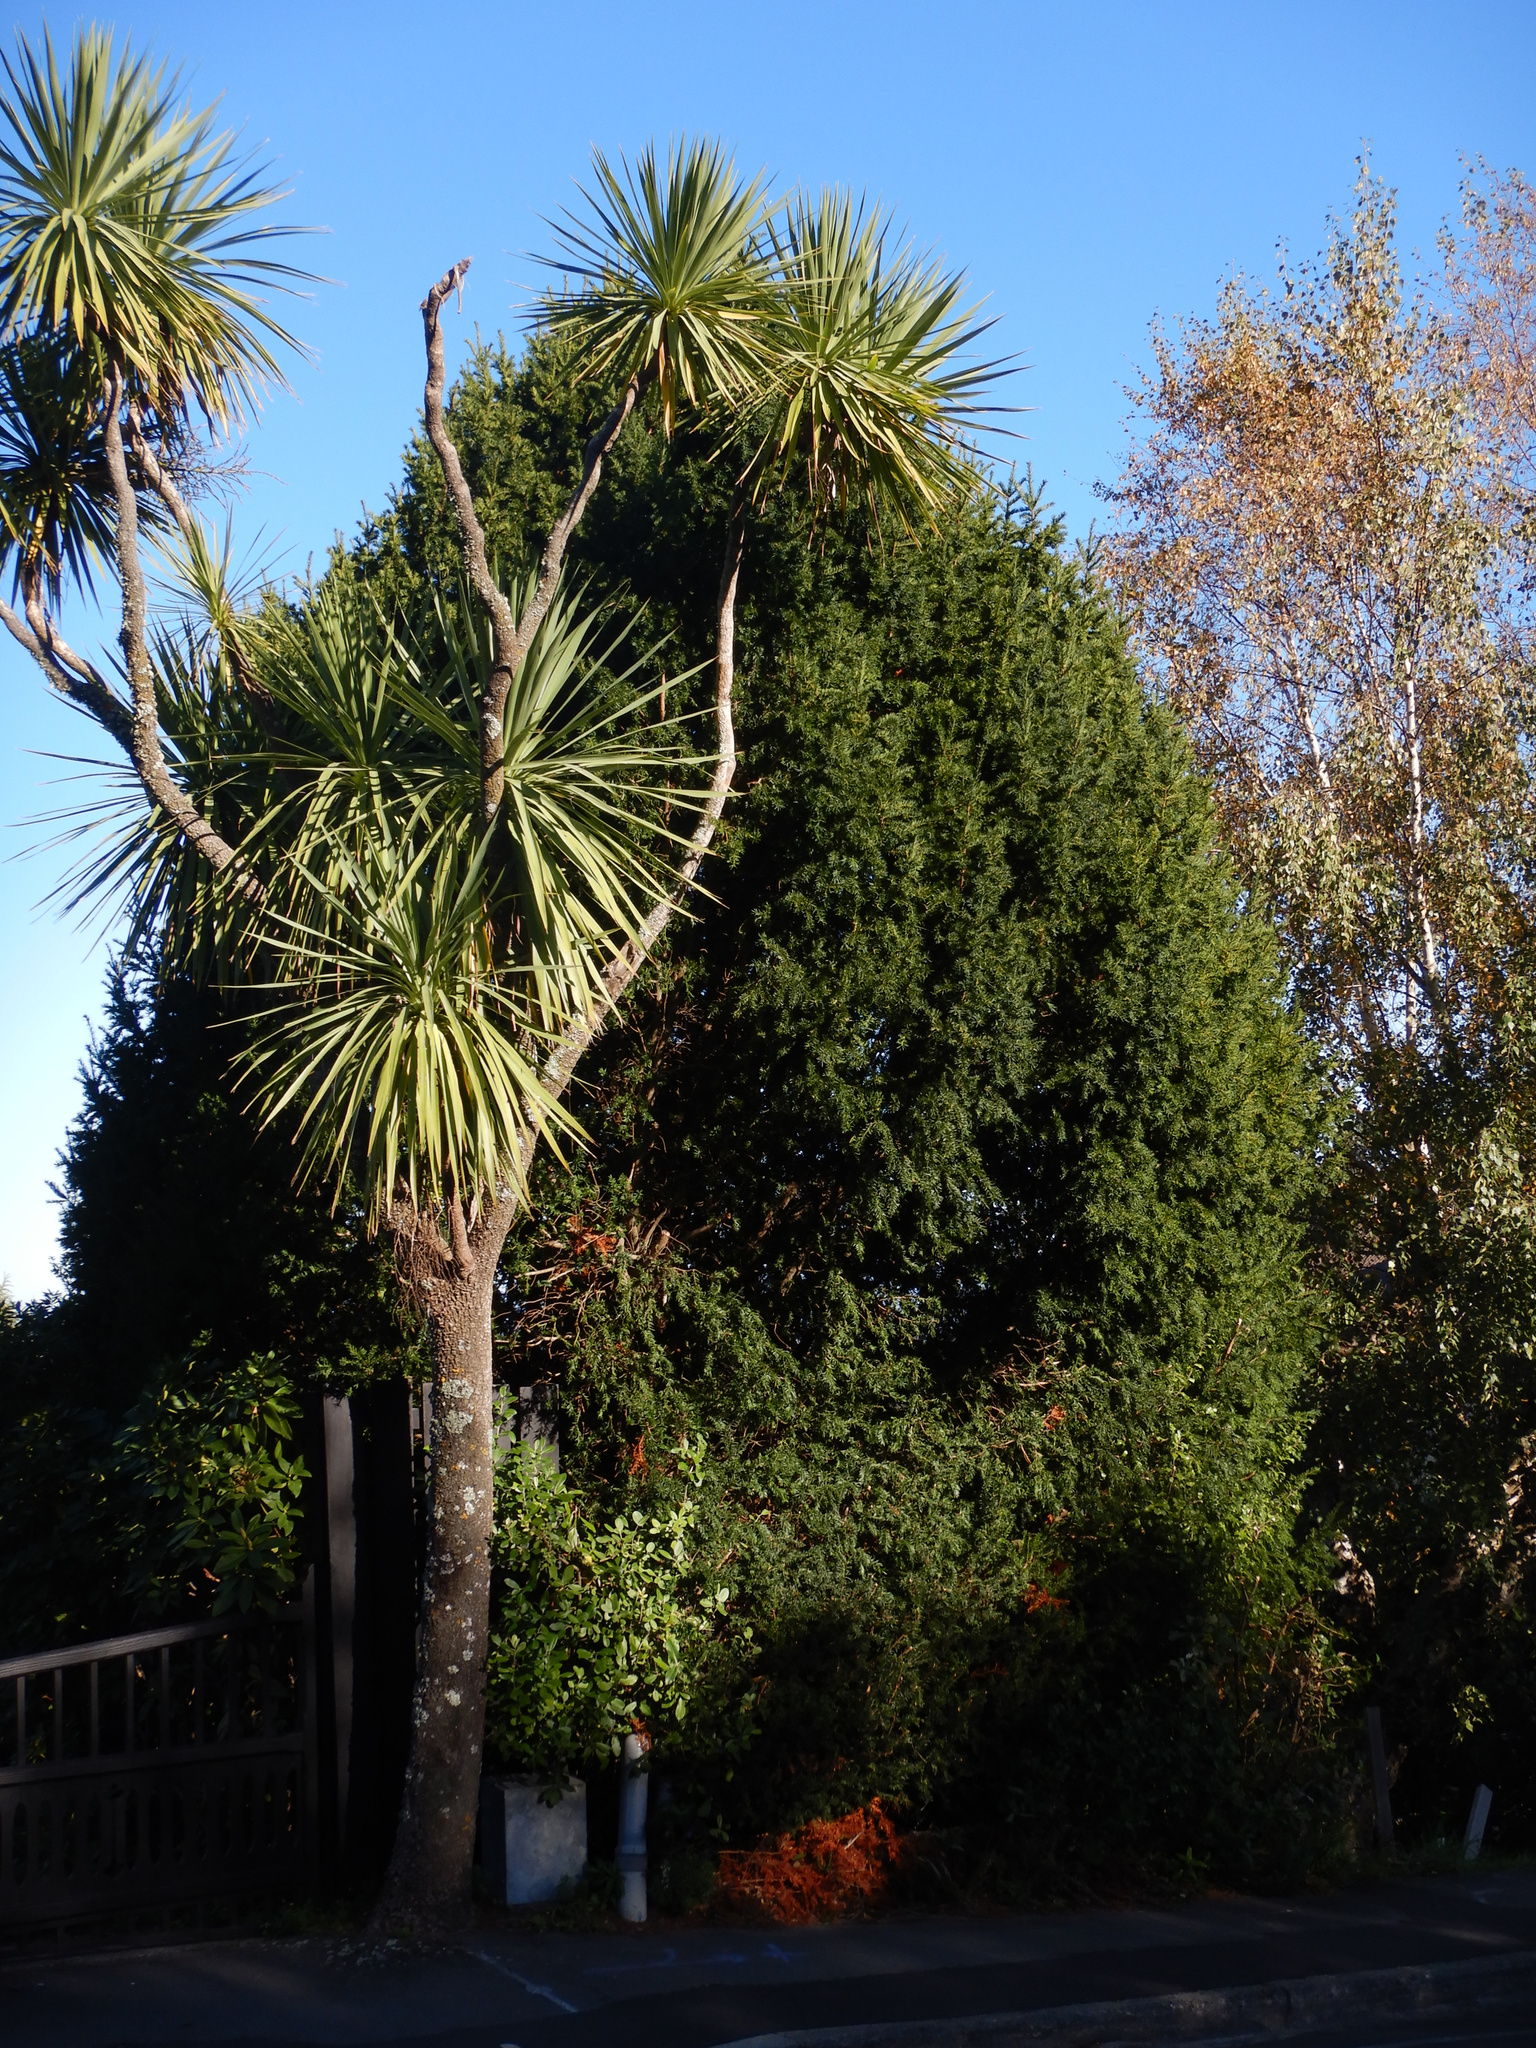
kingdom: Plantae
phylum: Tracheophyta
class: Liliopsida
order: Asparagales
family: Asparagaceae
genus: Cordyline
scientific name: Cordyline australis
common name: Cabbage-palm
